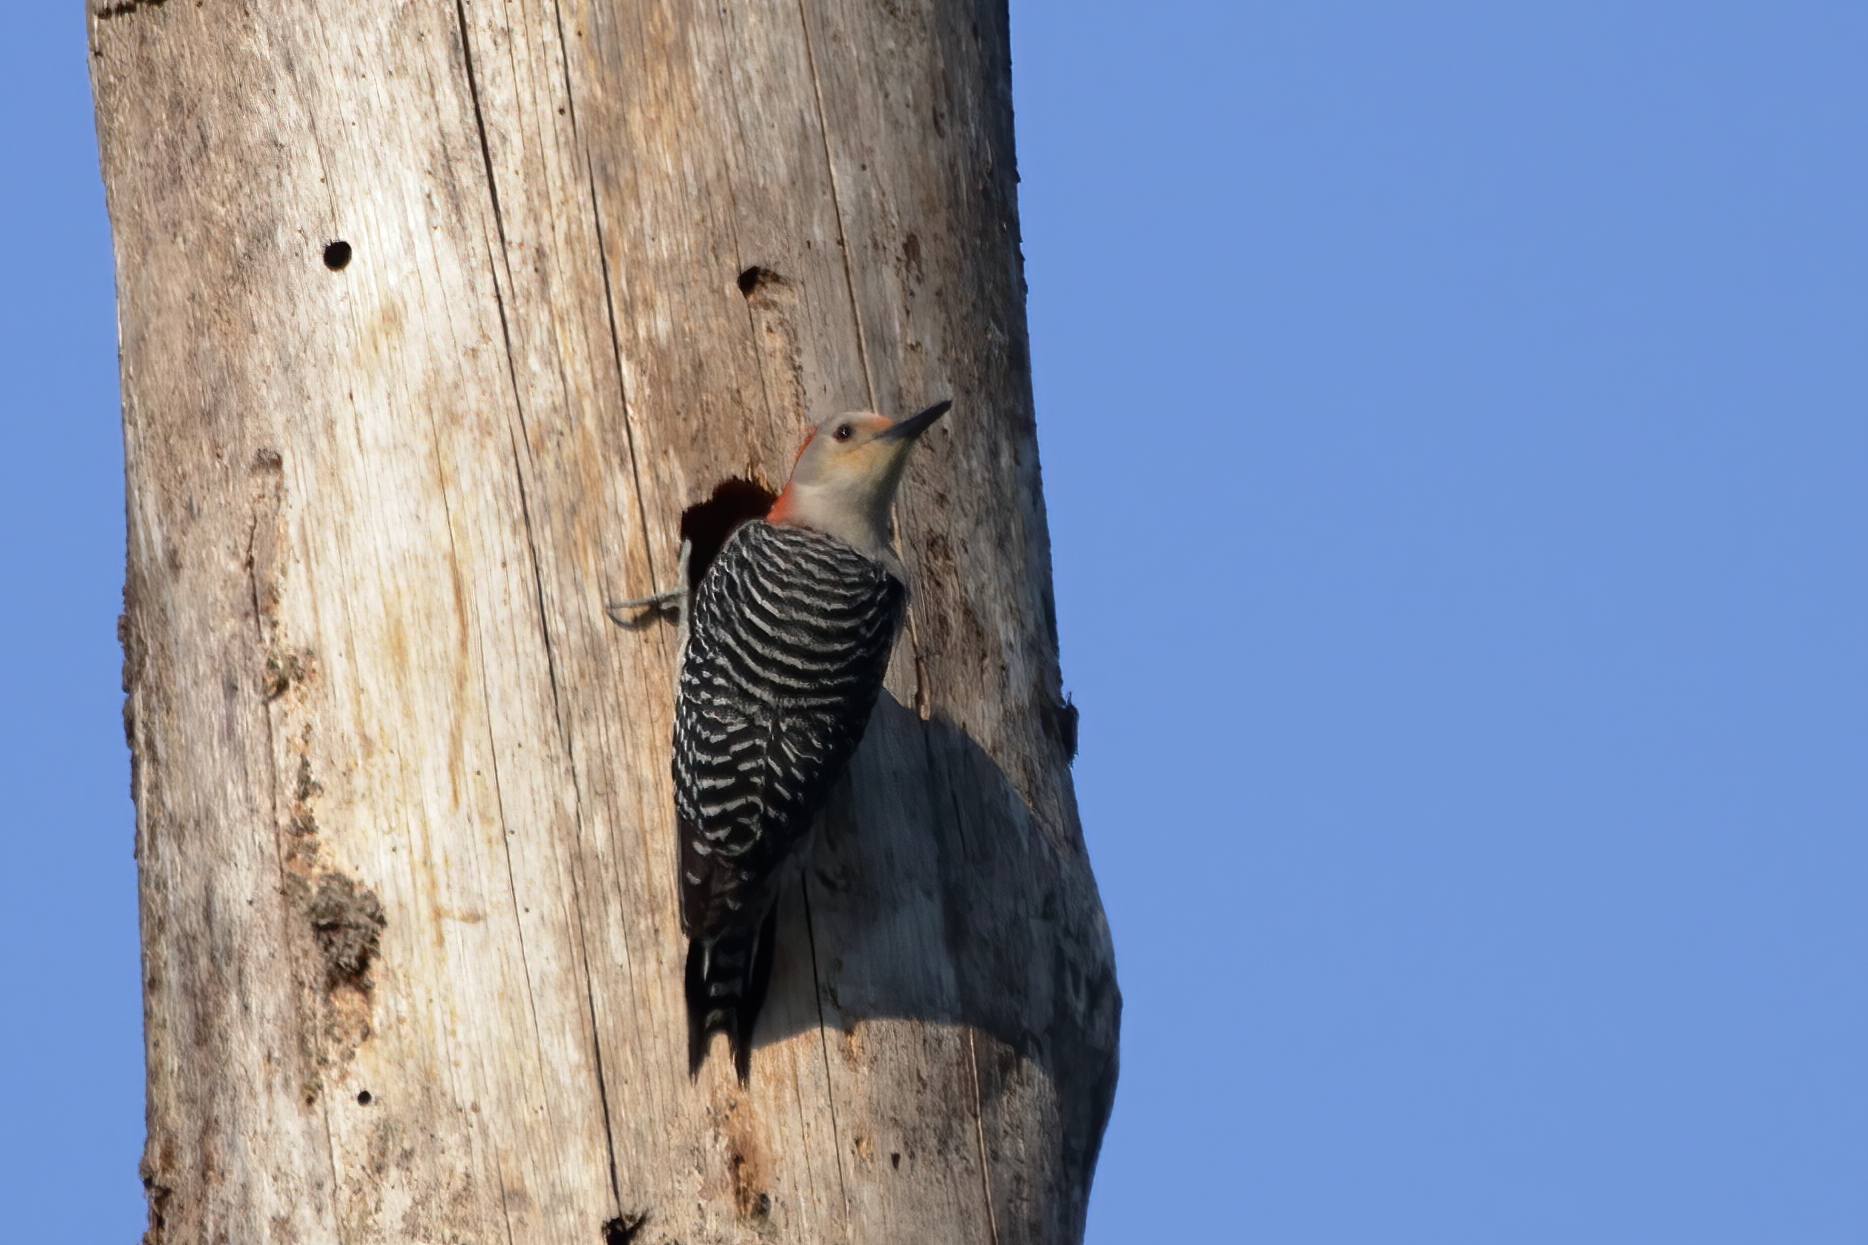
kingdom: Animalia
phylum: Chordata
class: Aves
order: Piciformes
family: Picidae
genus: Melanerpes
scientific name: Melanerpes carolinus
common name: Red-bellied woodpecker
